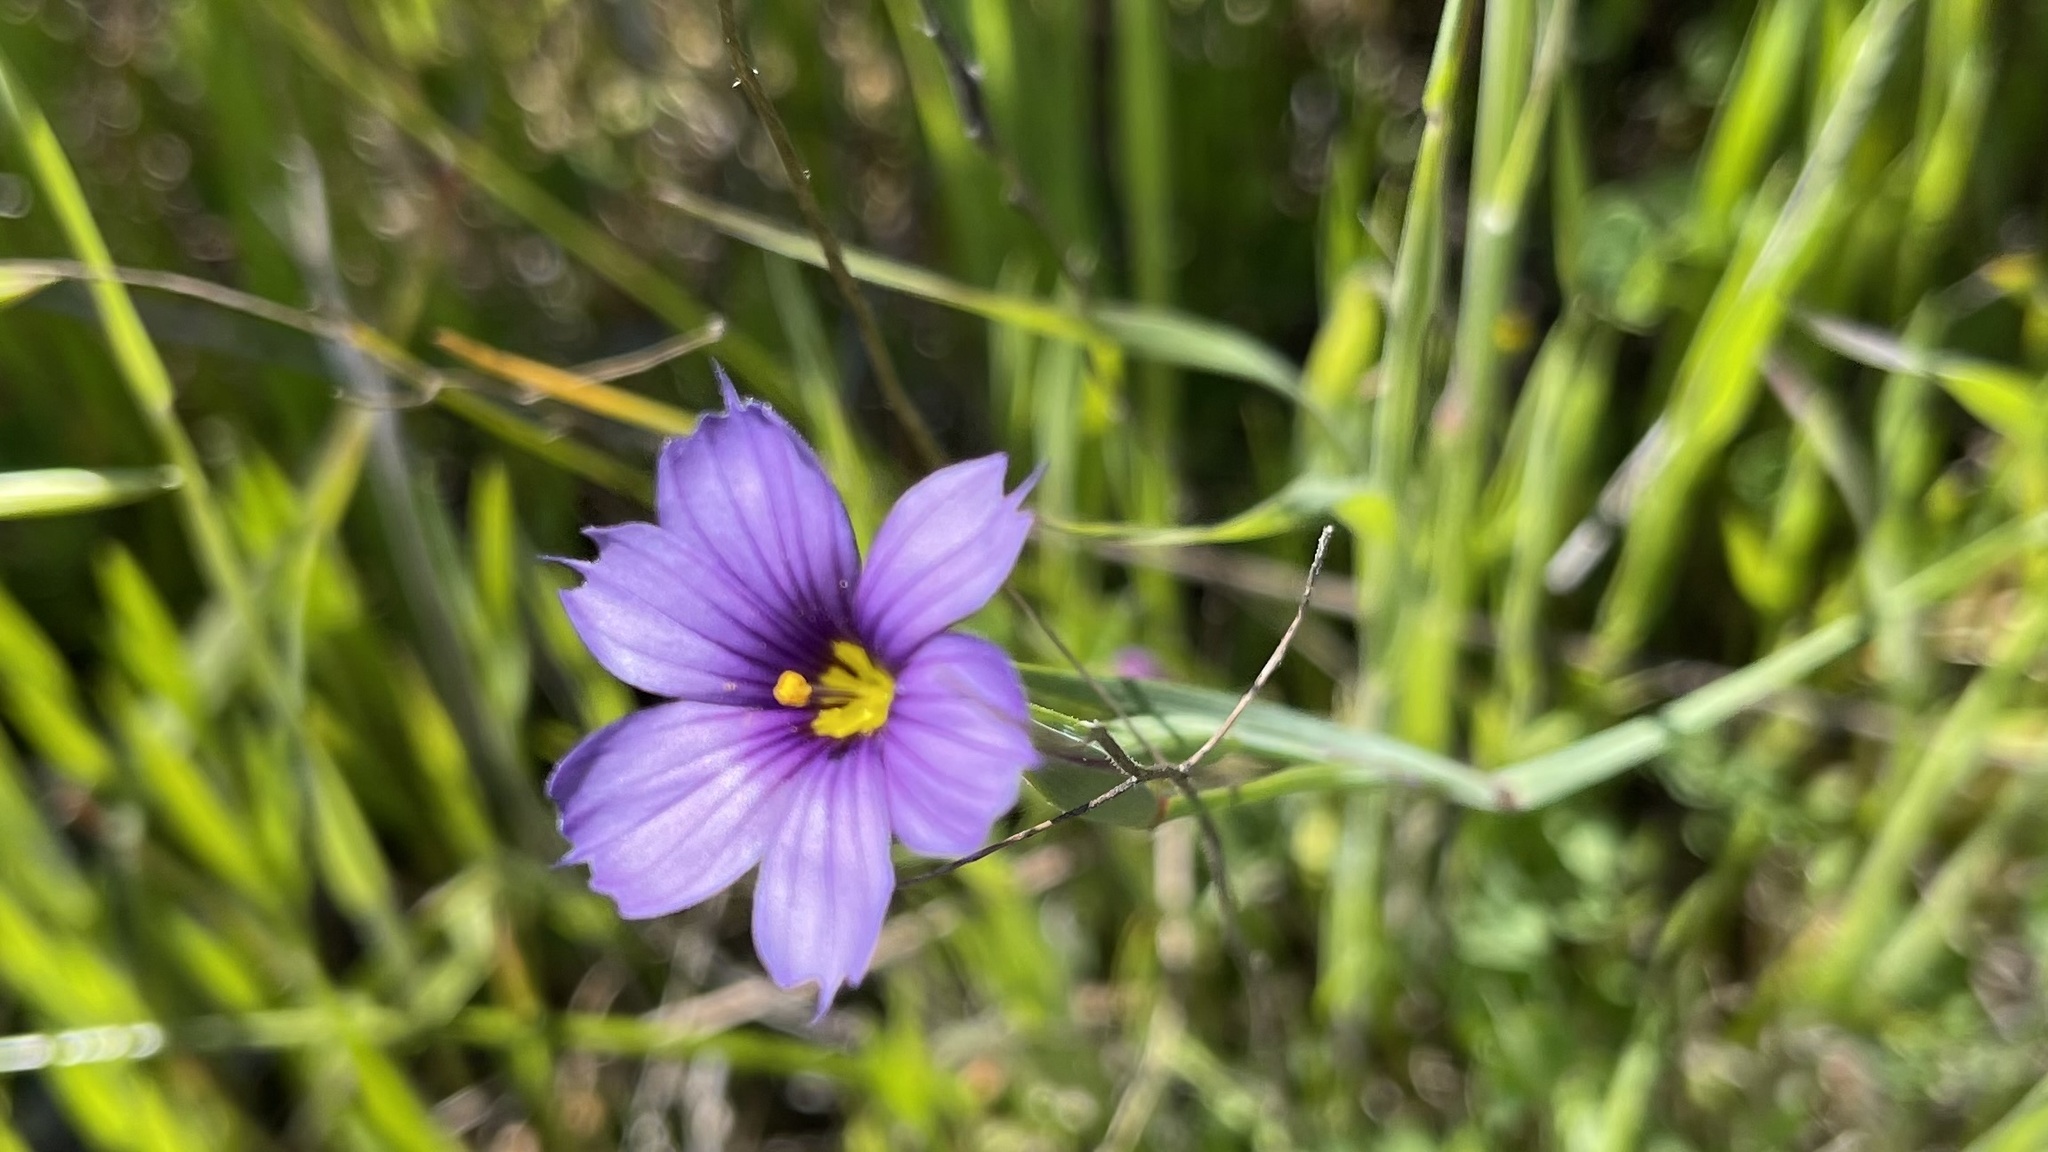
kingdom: Plantae
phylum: Tracheophyta
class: Liliopsida
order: Asparagales
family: Iridaceae
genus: Sisyrinchium
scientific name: Sisyrinchium bellum
